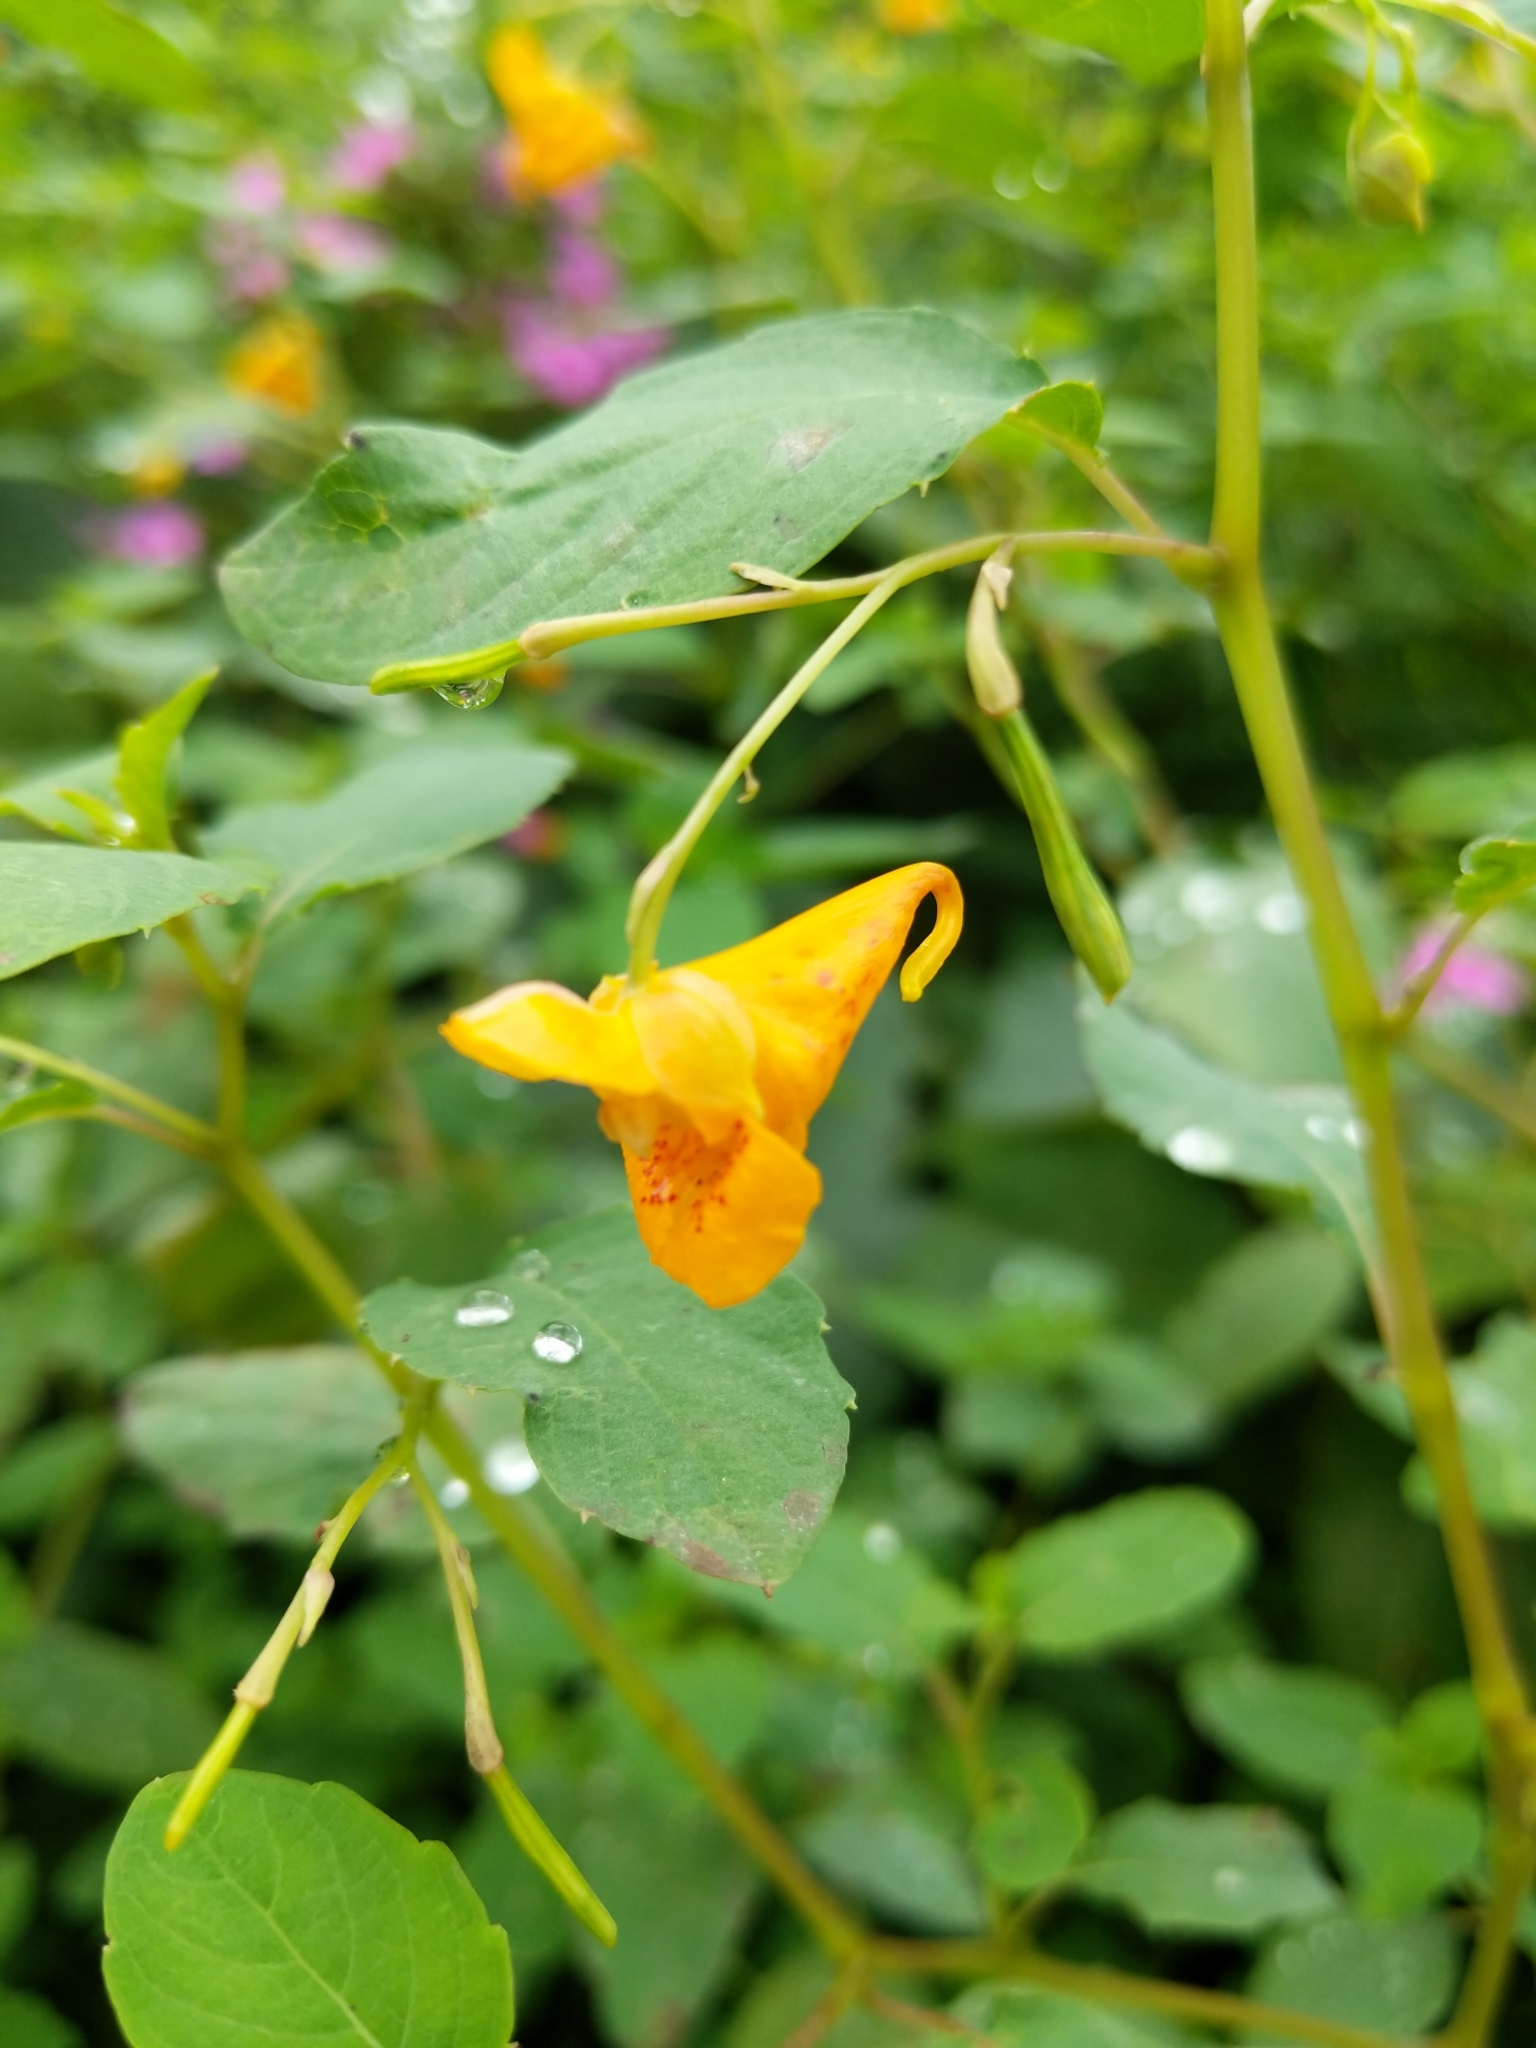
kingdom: Plantae
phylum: Tracheophyta
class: Magnoliopsida
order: Ericales
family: Balsaminaceae
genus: Impatiens
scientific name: Impatiens capensis
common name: Orange balsam
